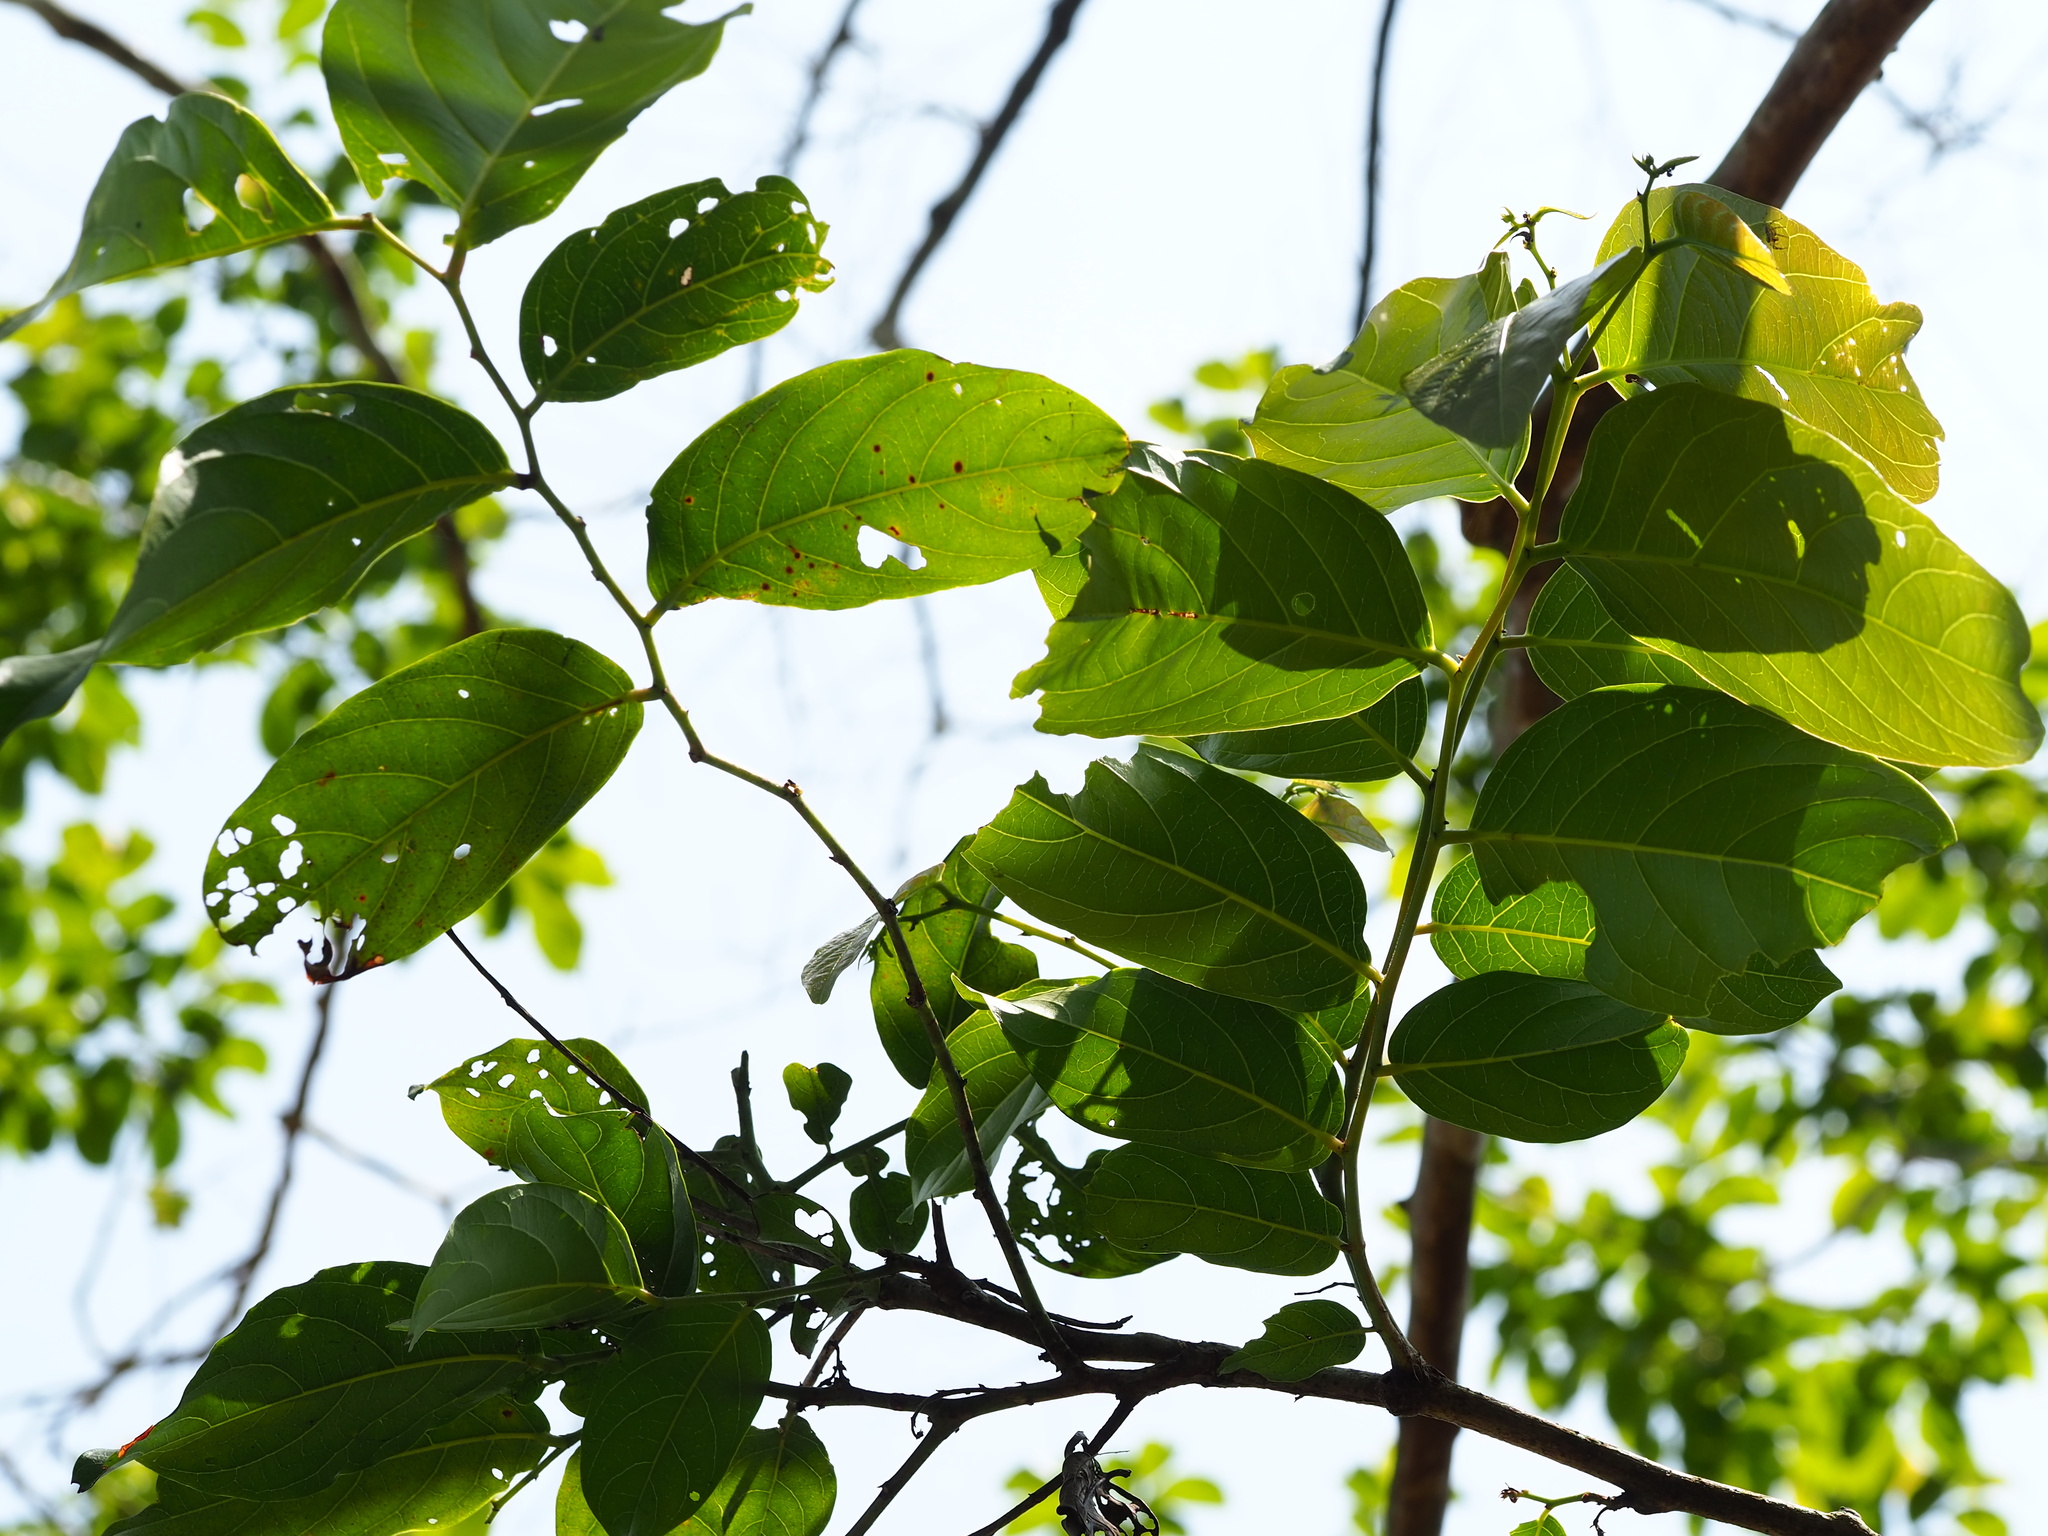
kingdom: Plantae
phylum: Tracheophyta
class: Magnoliopsida
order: Malpighiales
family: Phyllanthaceae
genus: Glochidion
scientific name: Glochidion zeylanicum
